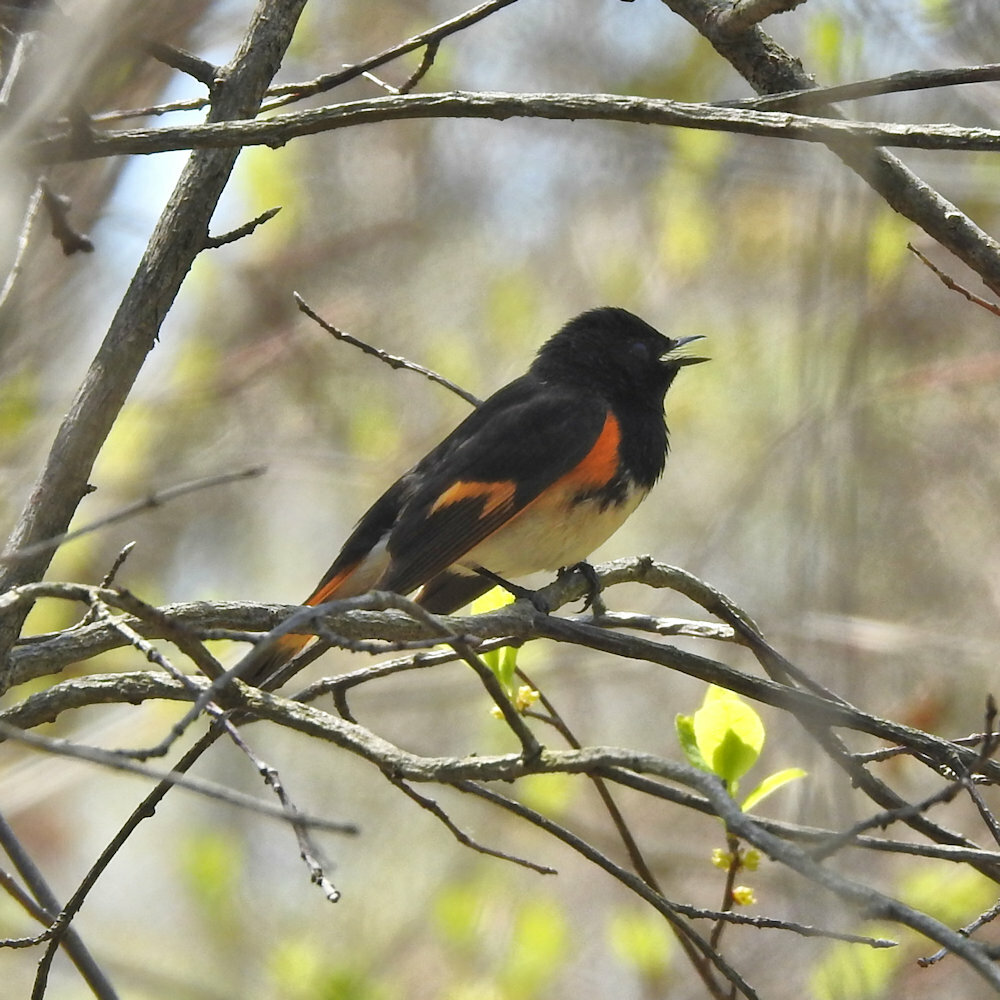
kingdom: Animalia
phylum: Chordata
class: Aves
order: Passeriformes
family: Parulidae
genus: Setophaga
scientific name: Setophaga ruticilla
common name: American redstart
